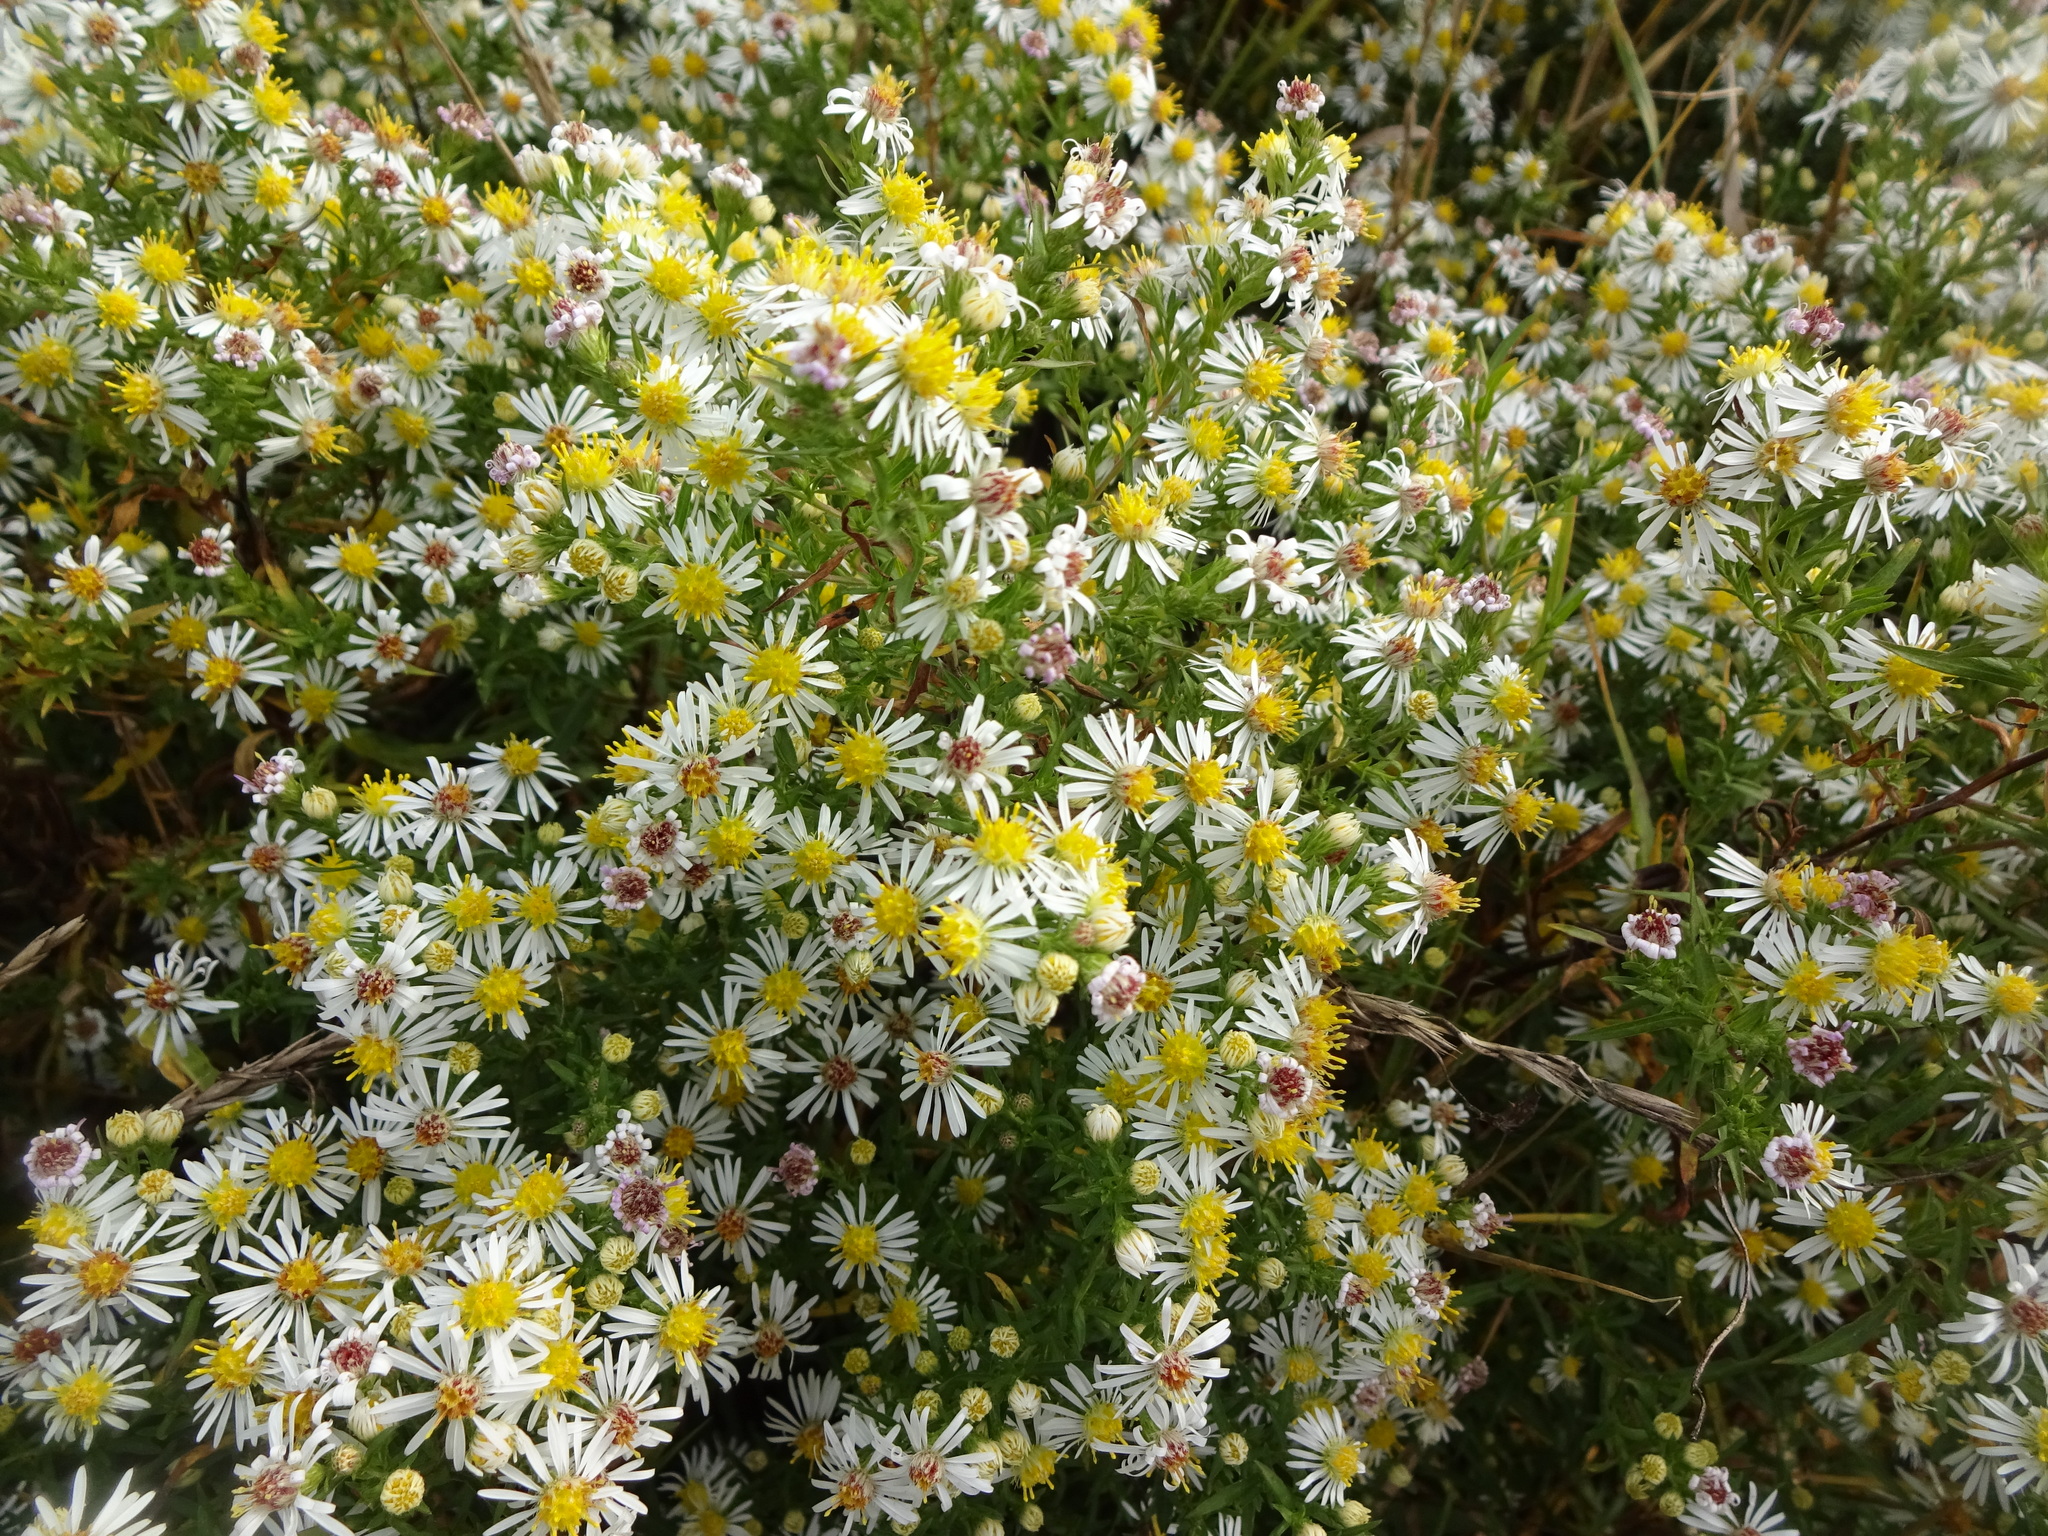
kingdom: Plantae
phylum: Tracheophyta
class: Magnoliopsida
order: Asterales
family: Asteraceae
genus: Symphyotrichum
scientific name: Symphyotrichum lanceolatum
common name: Panicled aster
